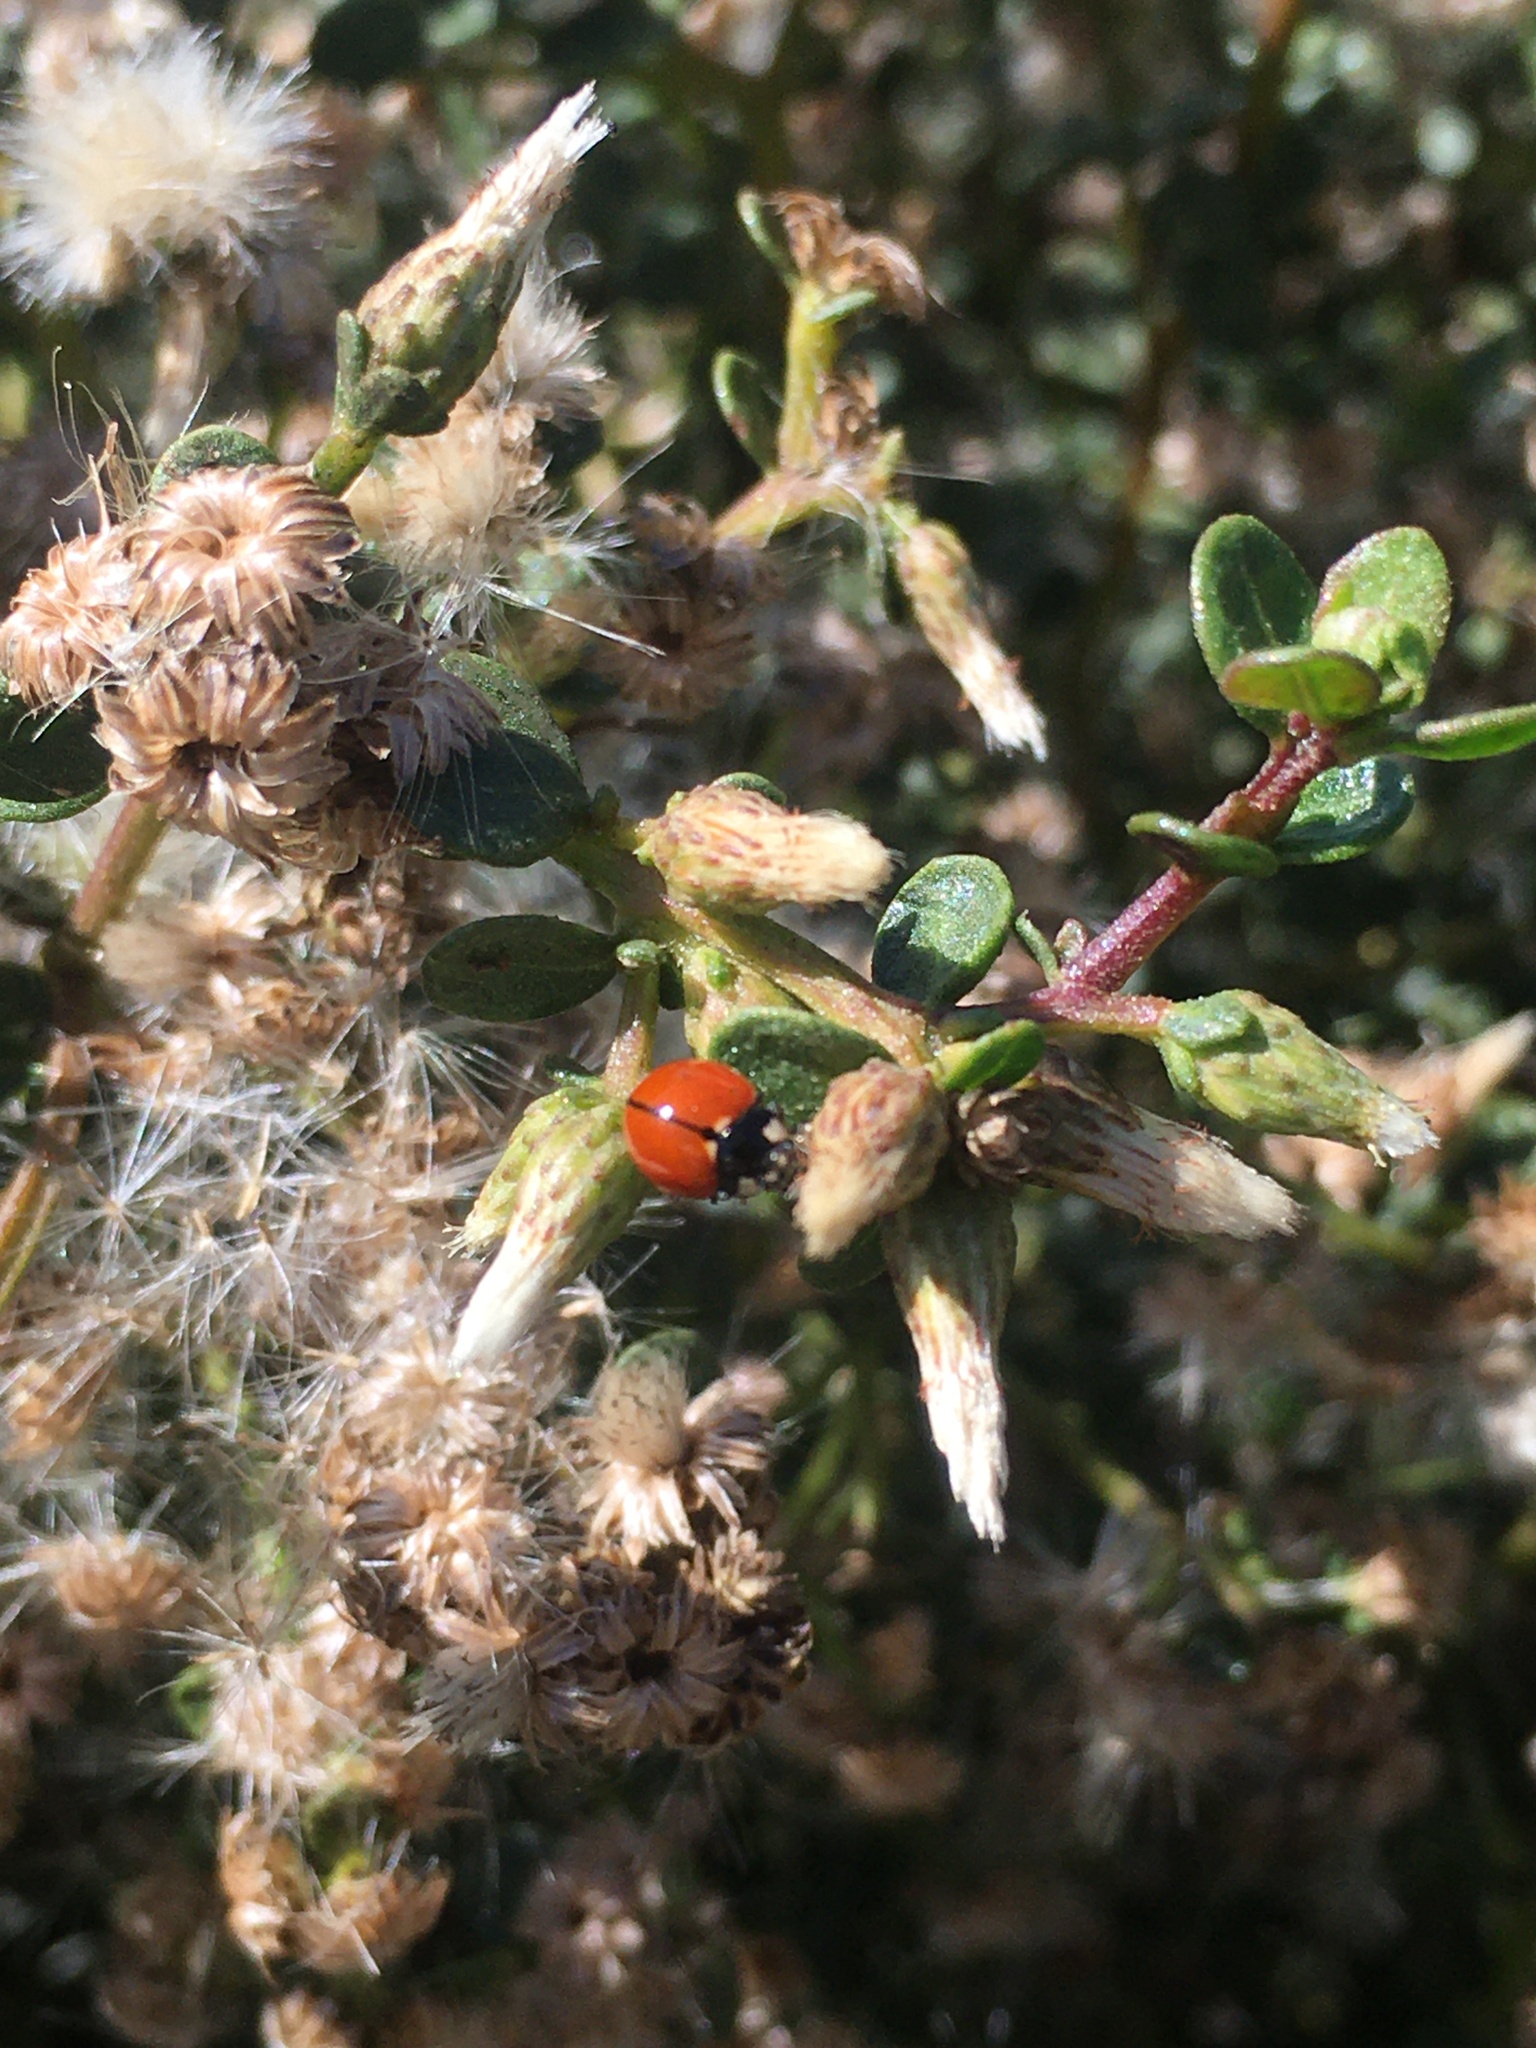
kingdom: Animalia
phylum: Arthropoda
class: Insecta
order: Coleoptera
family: Coccinellidae
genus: Coccinella
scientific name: Coccinella californica
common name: Lady beetle
